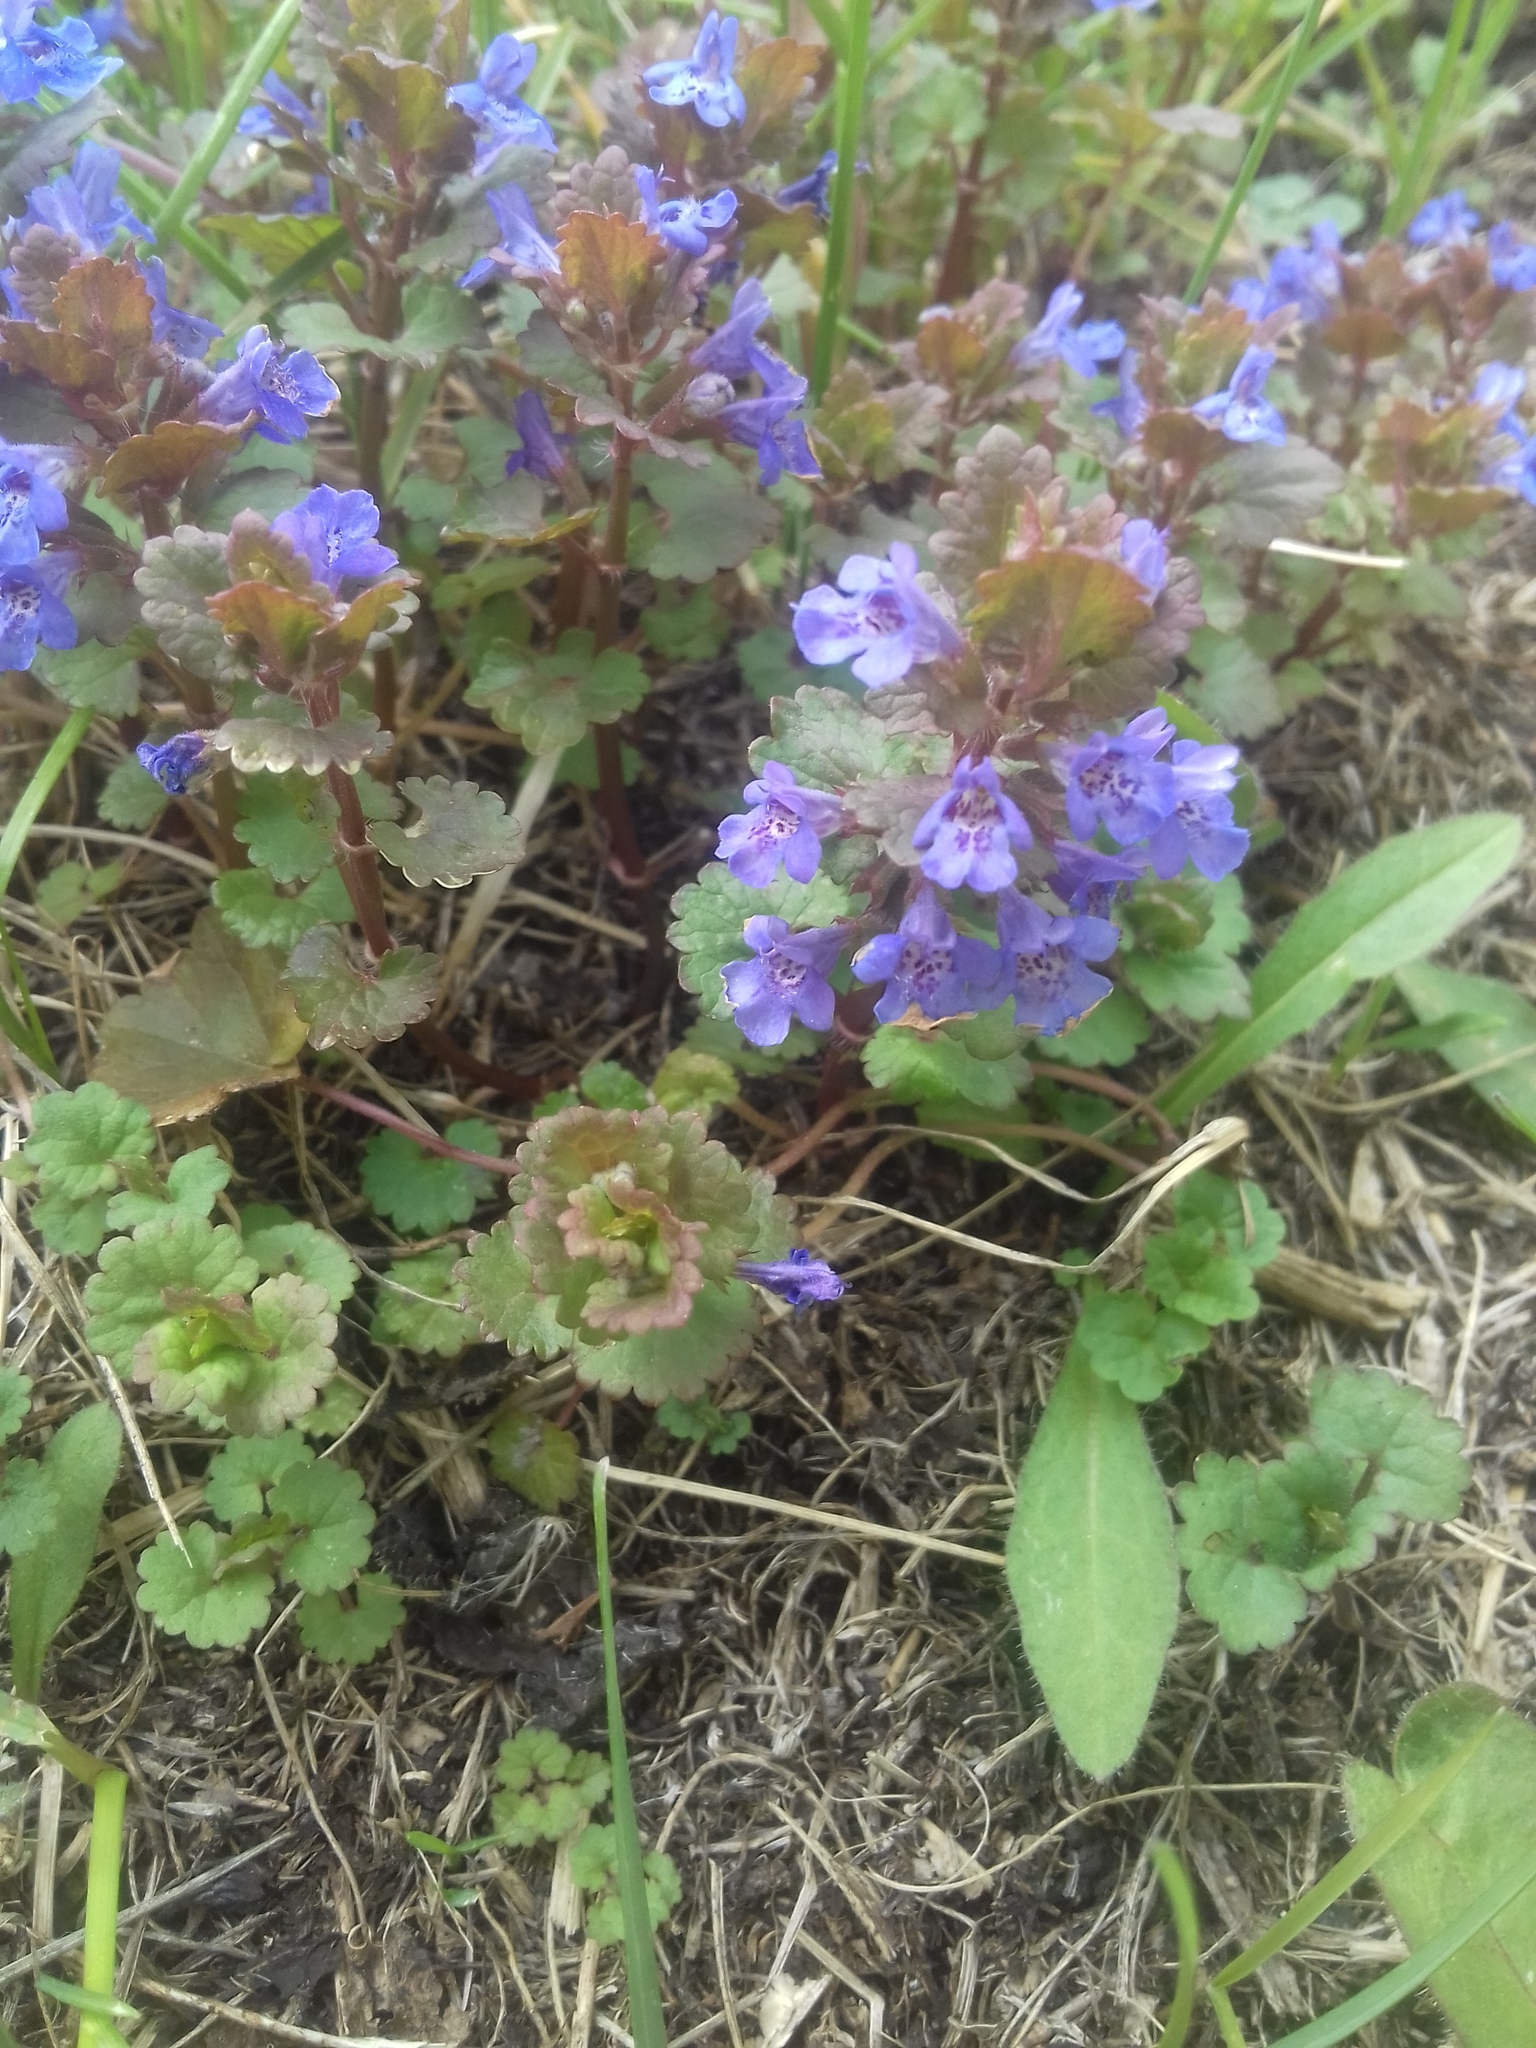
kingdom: Plantae
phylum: Tracheophyta
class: Magnoliopsida
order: Lamiales
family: Lamiaceae
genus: Glechoma
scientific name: Glechoma hederacea
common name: Ground ivy
